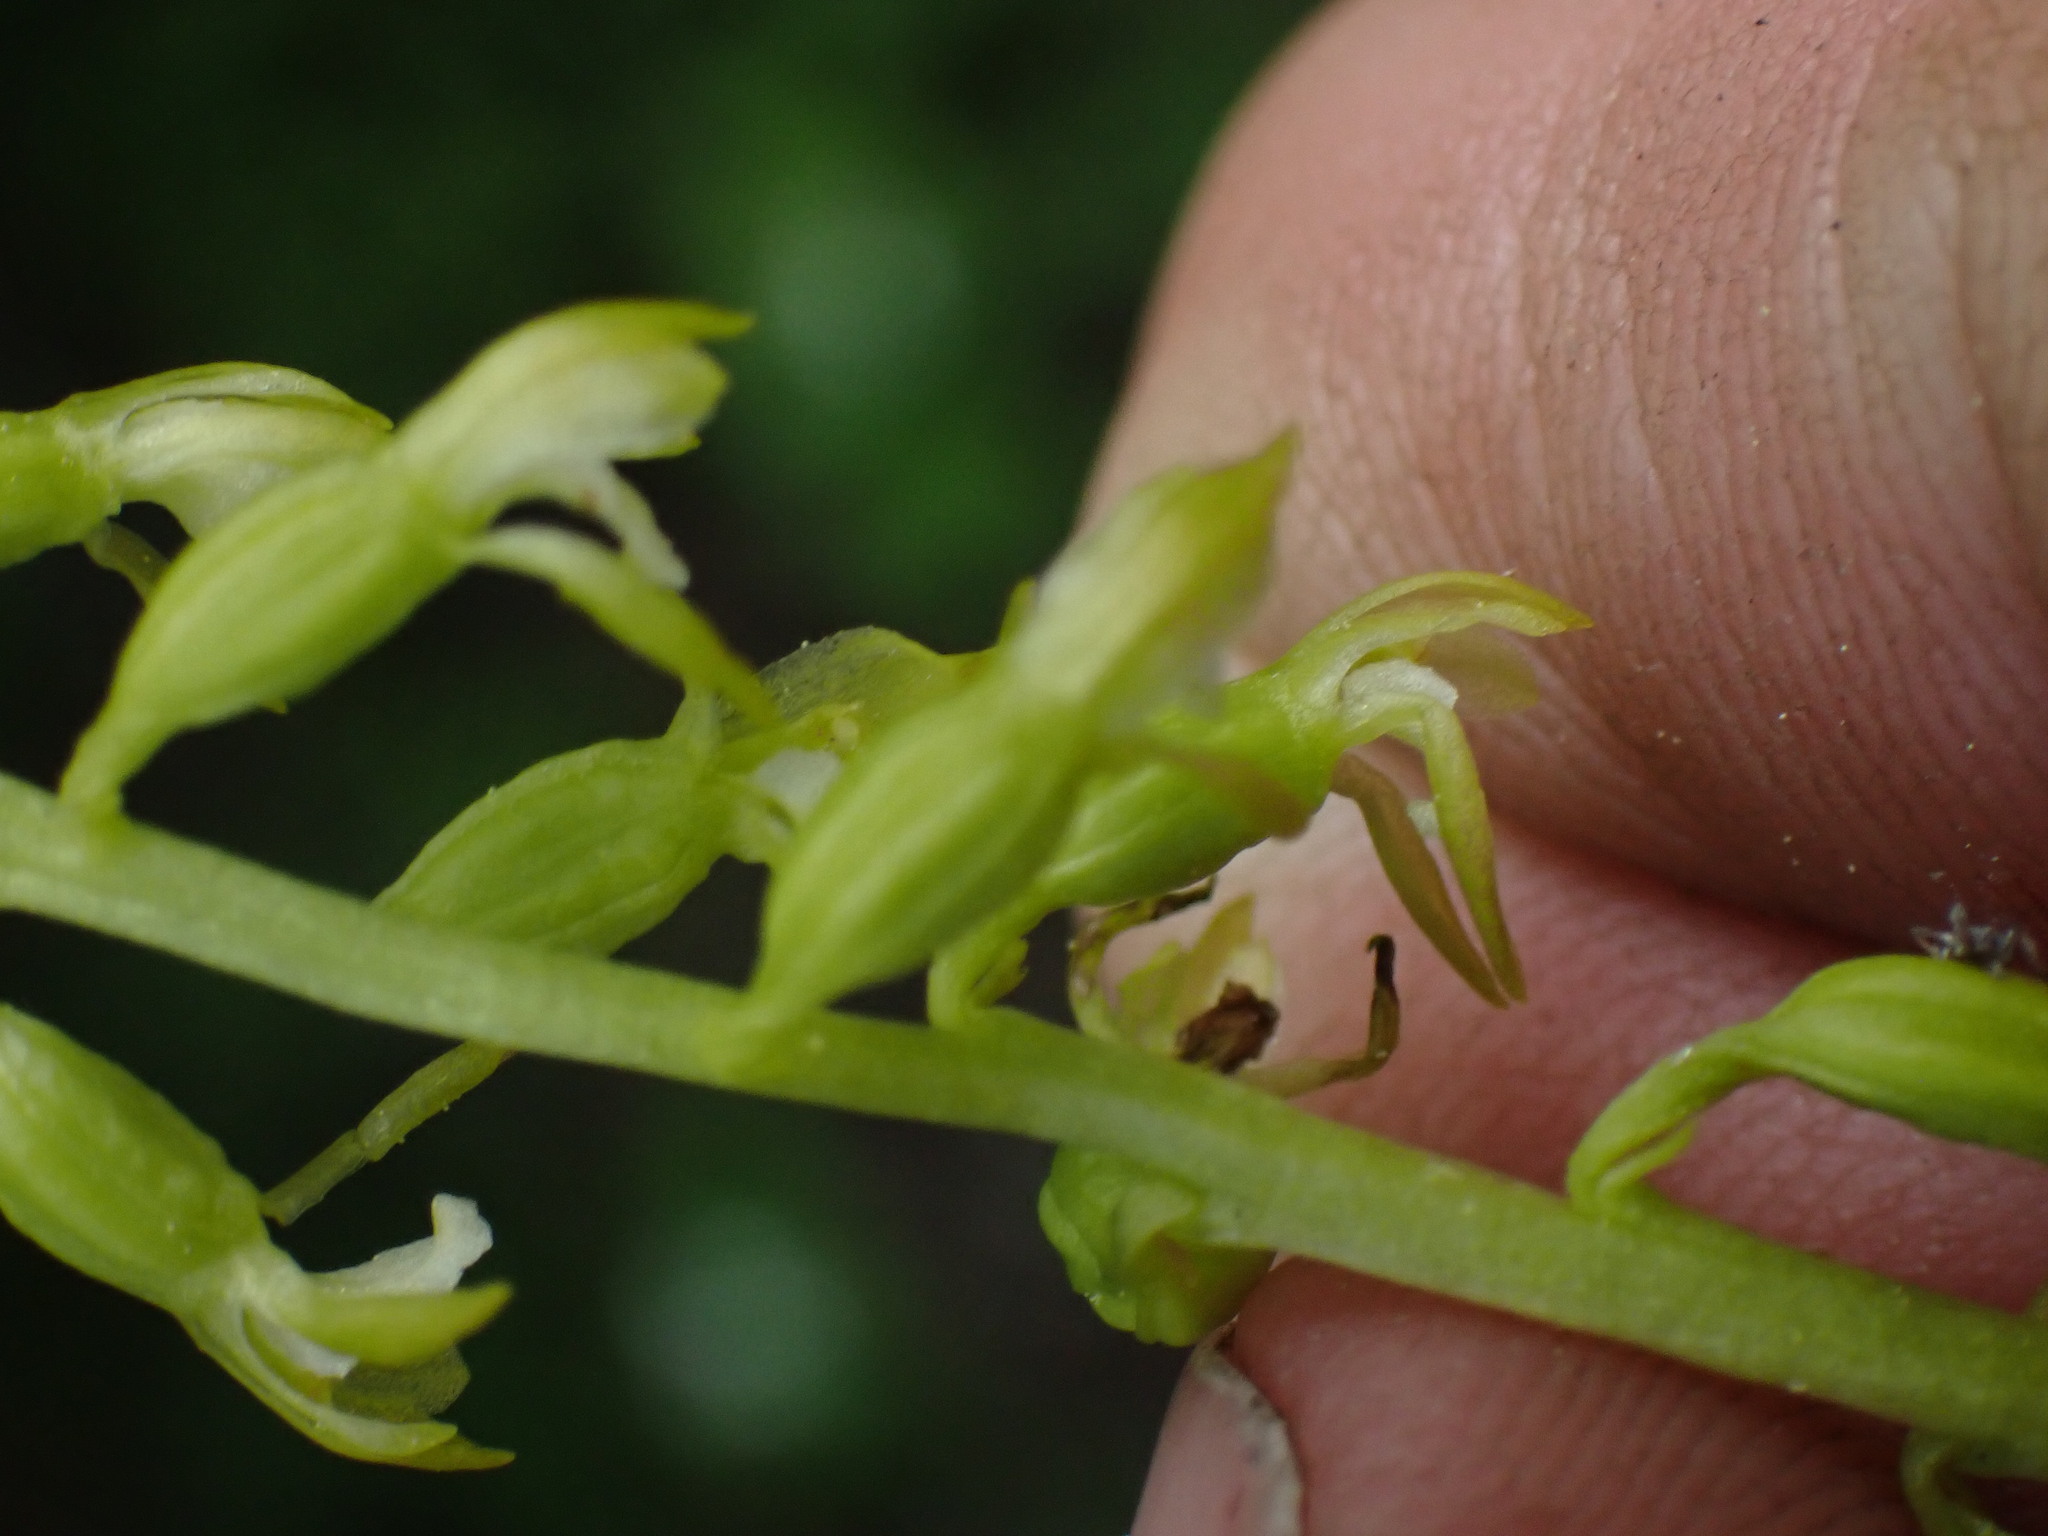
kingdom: Plantae
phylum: Tracheophyta
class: Liliopsida
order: Asparagales
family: Orchidaceae
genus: Corallorhiza
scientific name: Corallorhiza trifida
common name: Yellow coralroot
